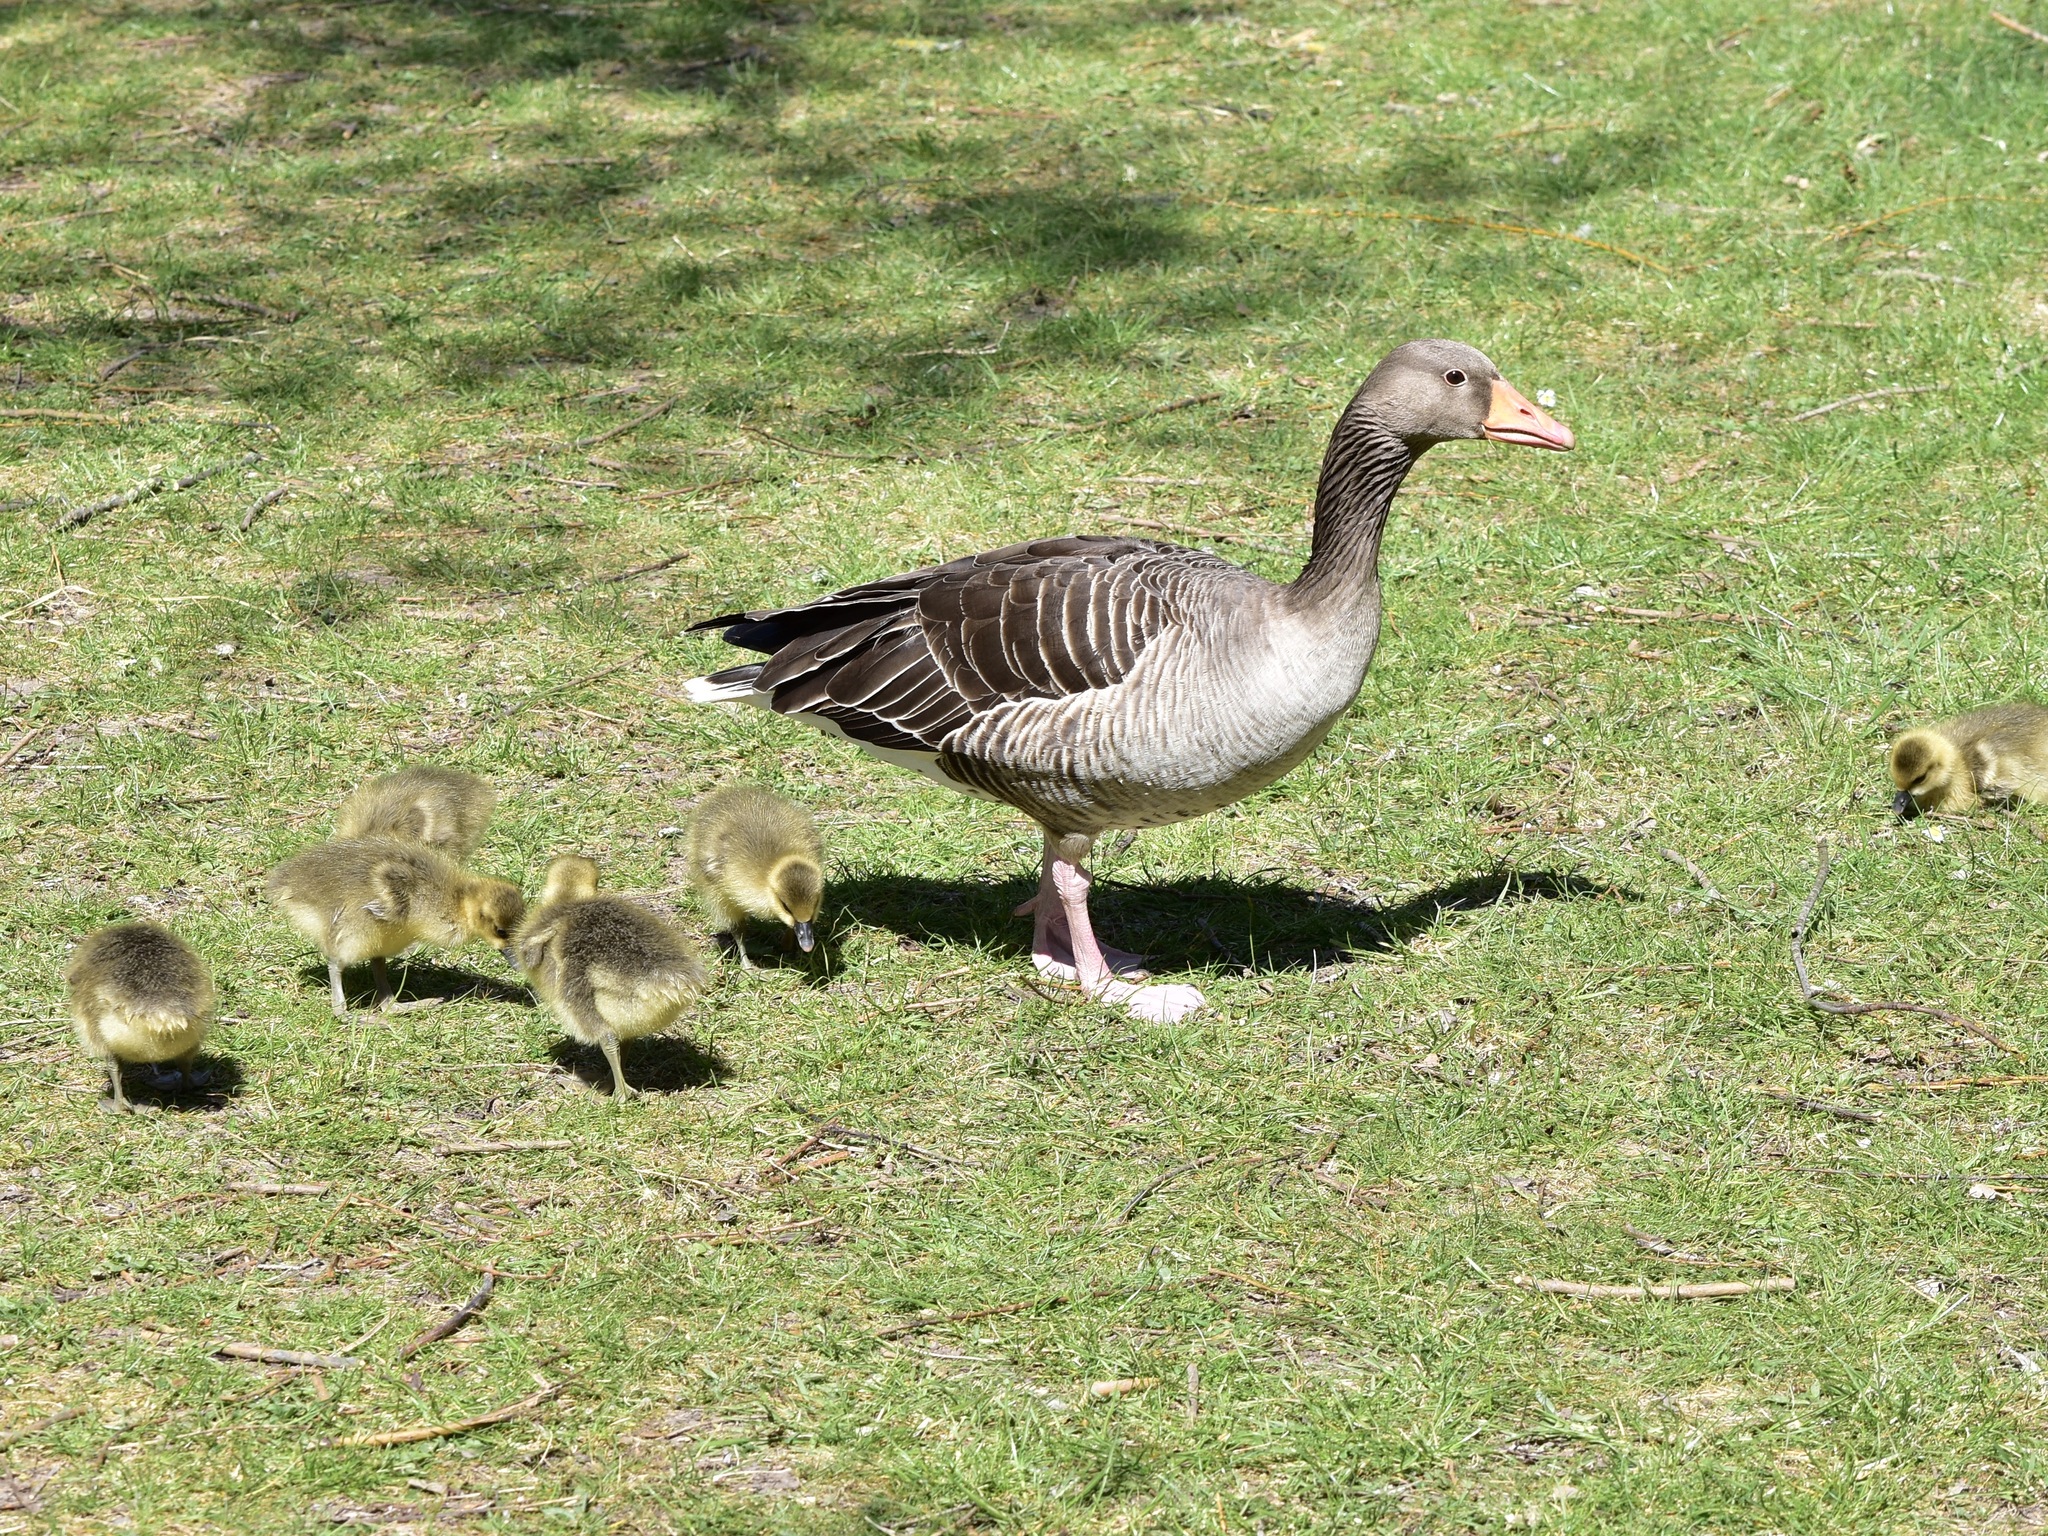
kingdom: Animalia
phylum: Chordata
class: Aves
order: Anseriformes
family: Anatidae
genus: Anser
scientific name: Anser anser
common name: Greylag goose
